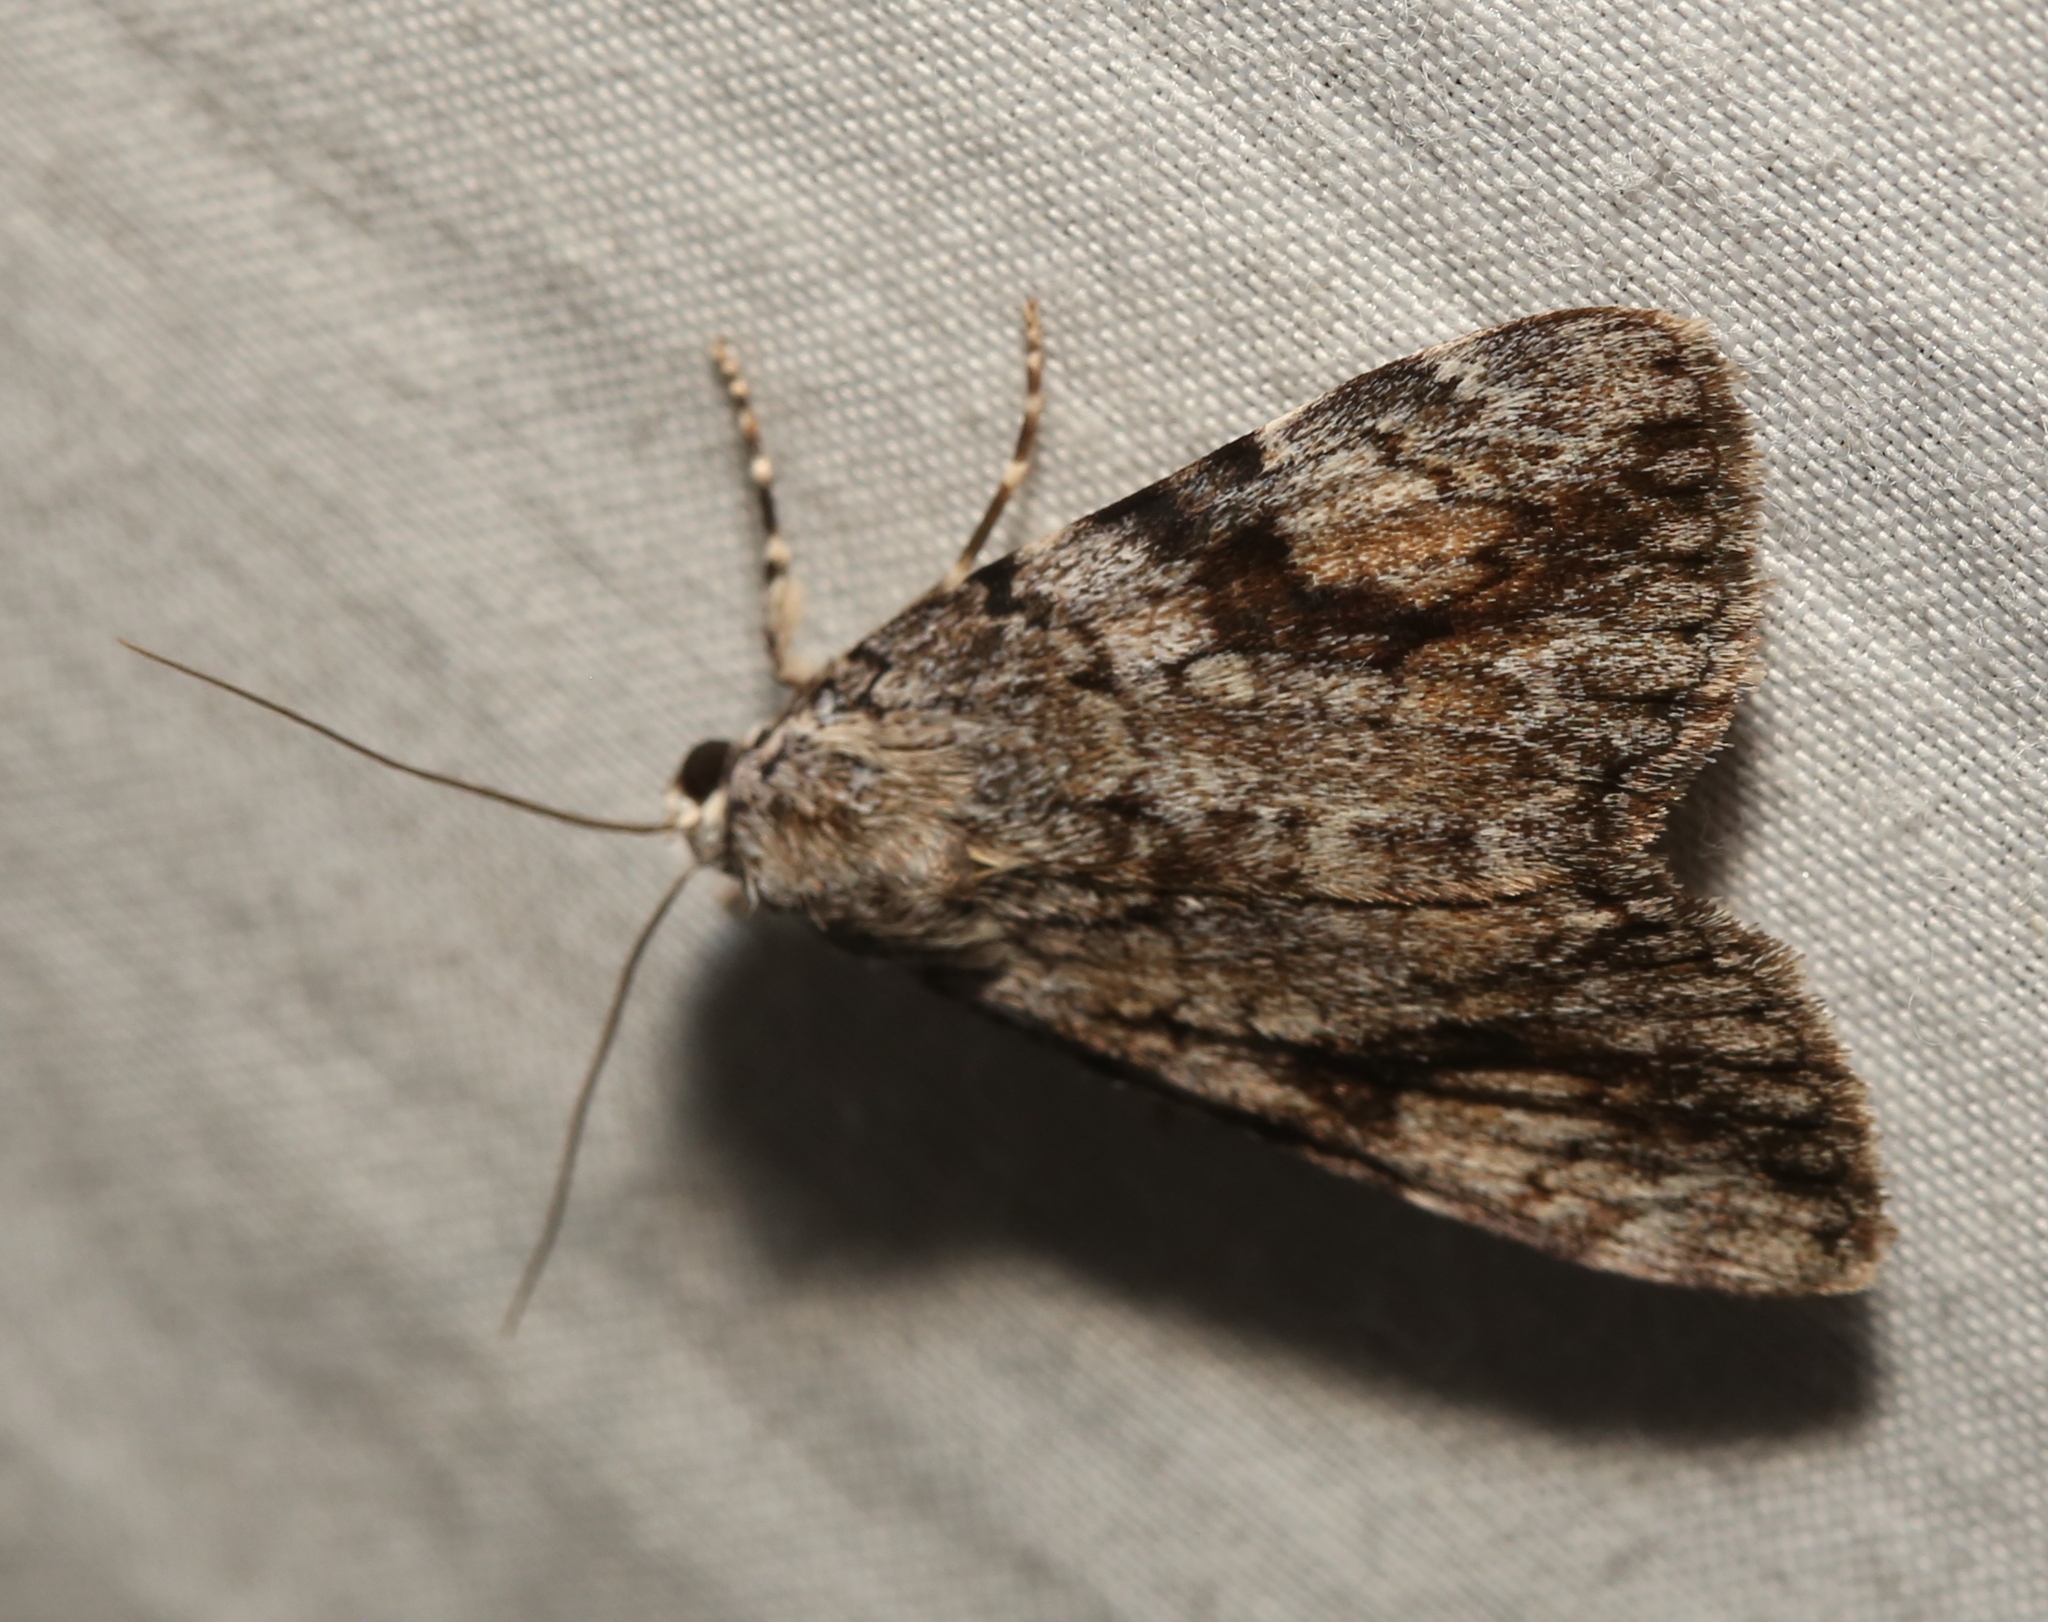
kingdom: Animalia
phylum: Arthropoda
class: Insecta
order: Lepidoptera
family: Erebidae
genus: Catocala
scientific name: Catocala amica
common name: Girlfriend underwing
